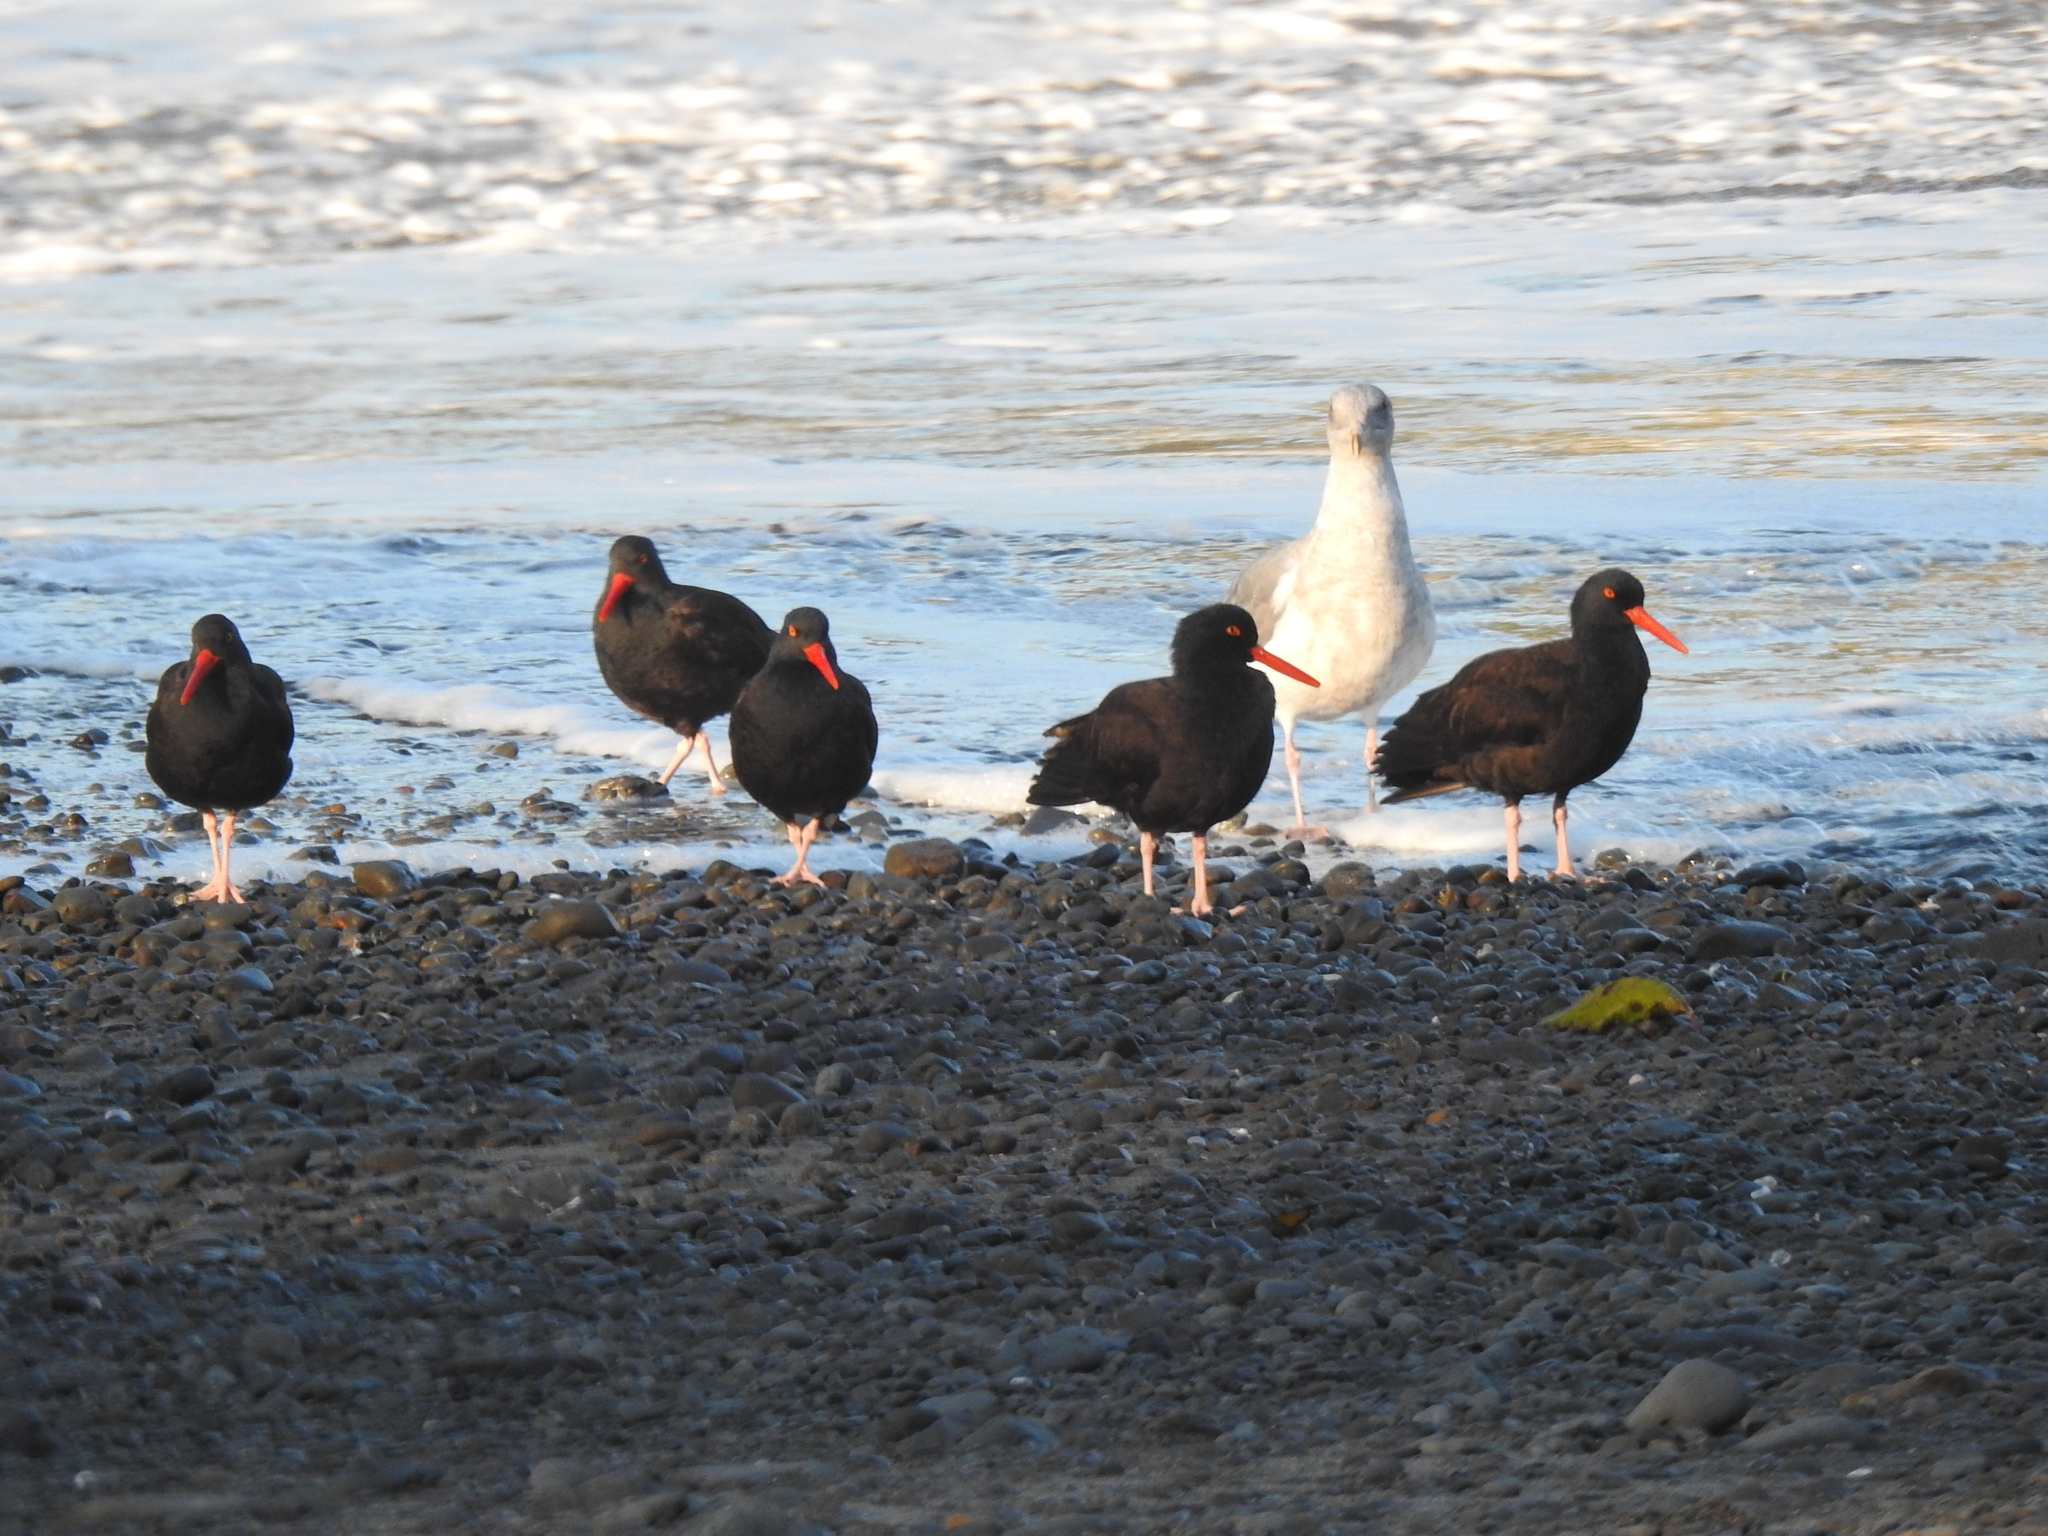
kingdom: Animalia
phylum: Chordata
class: Aves
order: Charadriiformes
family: Haematopodidae
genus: Haematopus
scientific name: Haematopus bachmani
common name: Black oystercatcher
